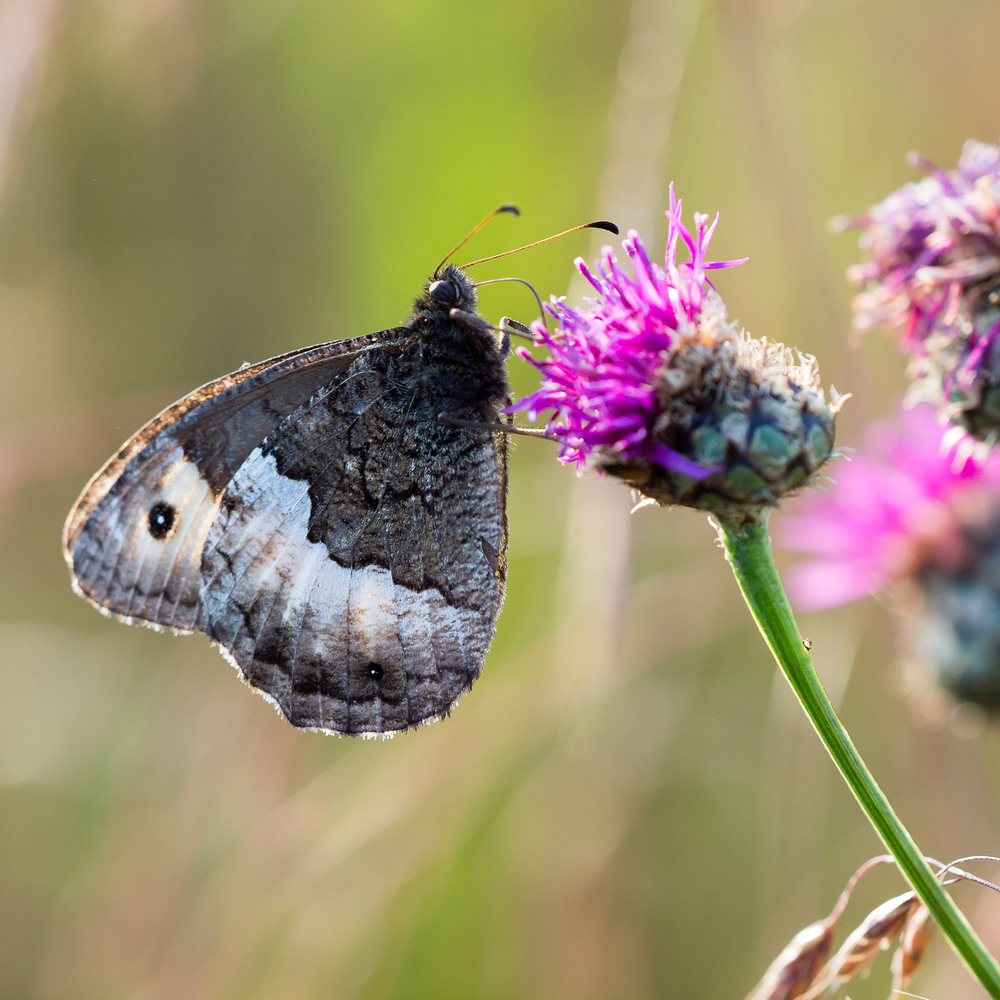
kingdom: Animalia
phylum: Arthropoda
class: Insecta
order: Lepidoptera
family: Nymphalidae
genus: Hipparchia
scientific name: Hipparchia hermione
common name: Rock grayling
